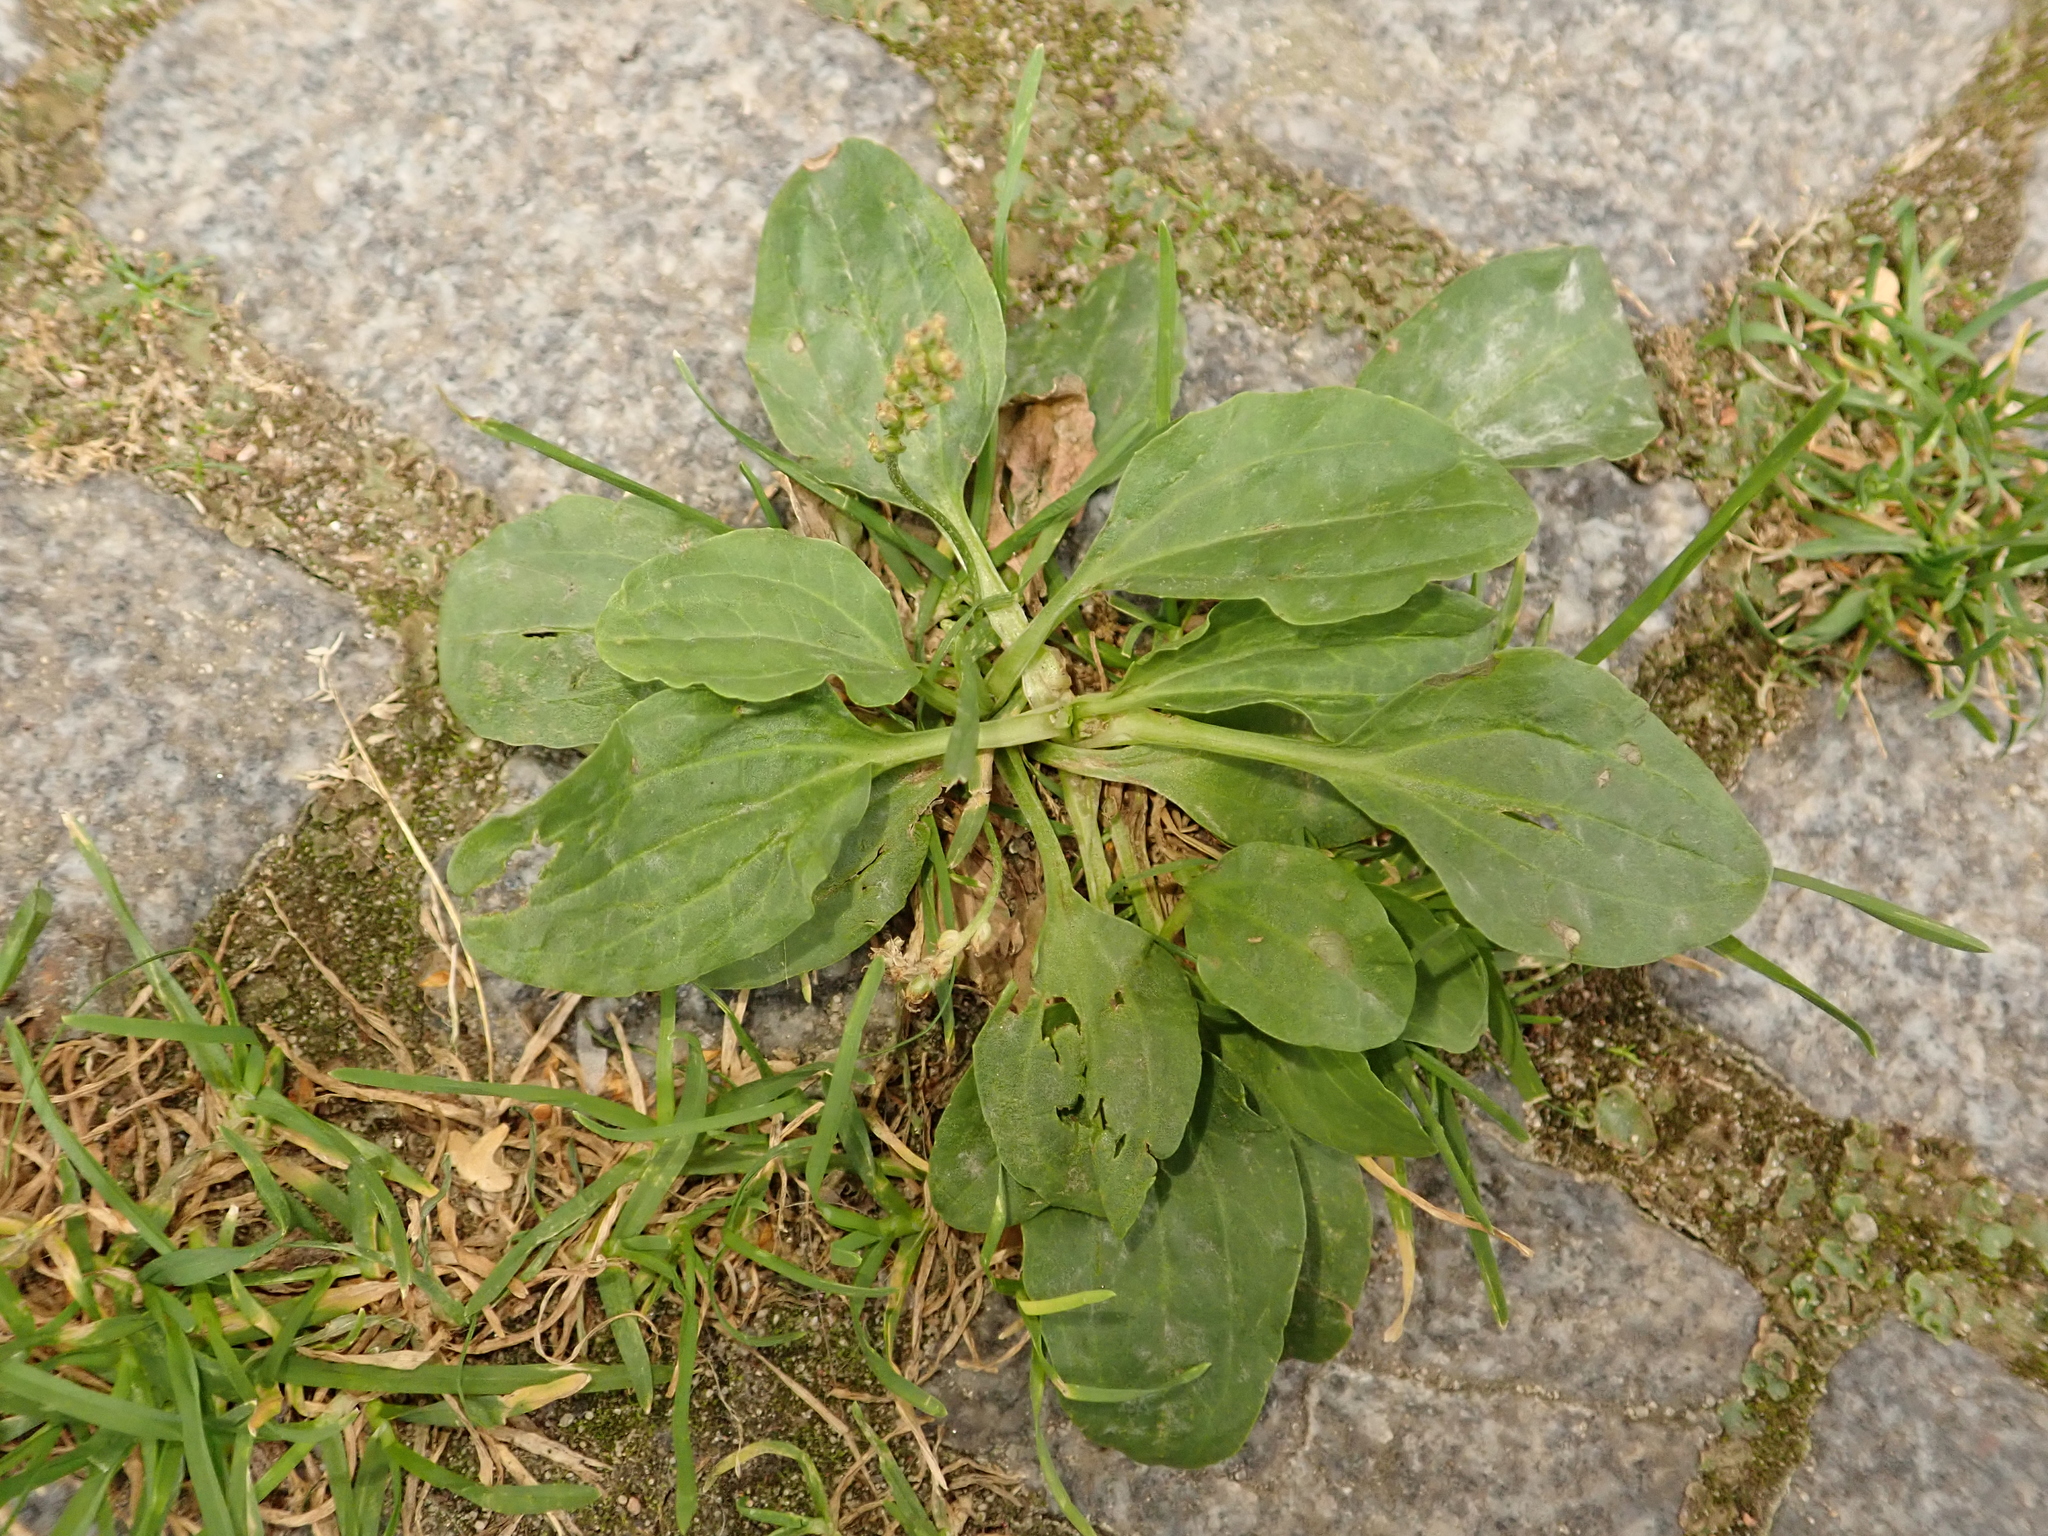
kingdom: Plantae
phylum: Tracheophyta
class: Magnoliopsida
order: Lamiales
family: Plantaginaceae
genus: Plantago
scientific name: Plantago major
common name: Common plantain
